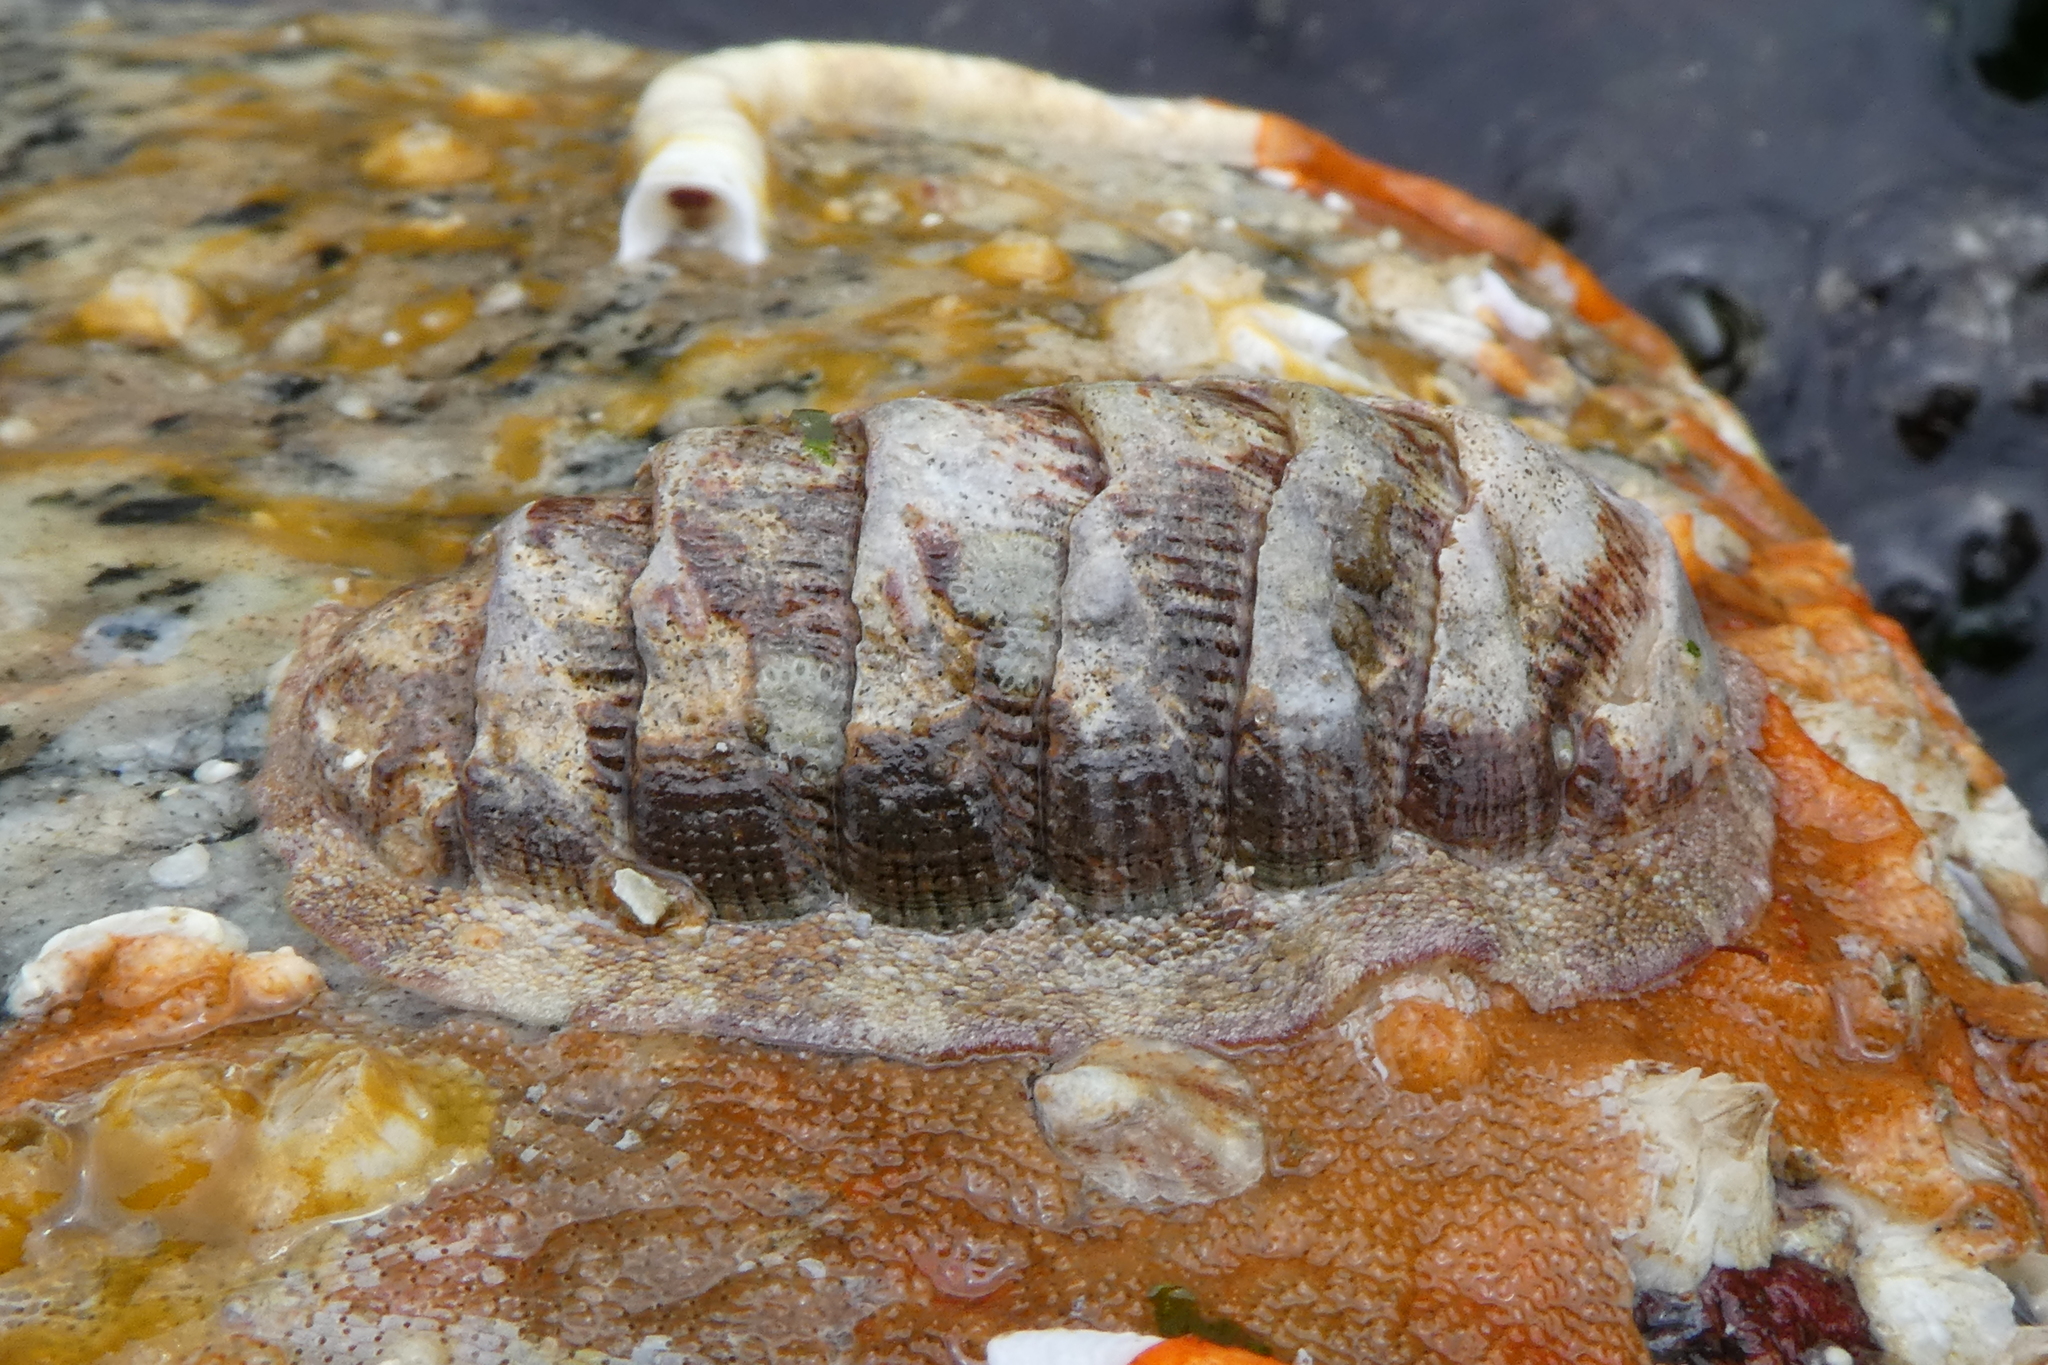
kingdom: Animalia
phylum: Mollusca
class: Polyplacophora
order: Chitonida
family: Ischnochitonidae
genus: Lepidozona
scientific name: Lepidozona mertensii
